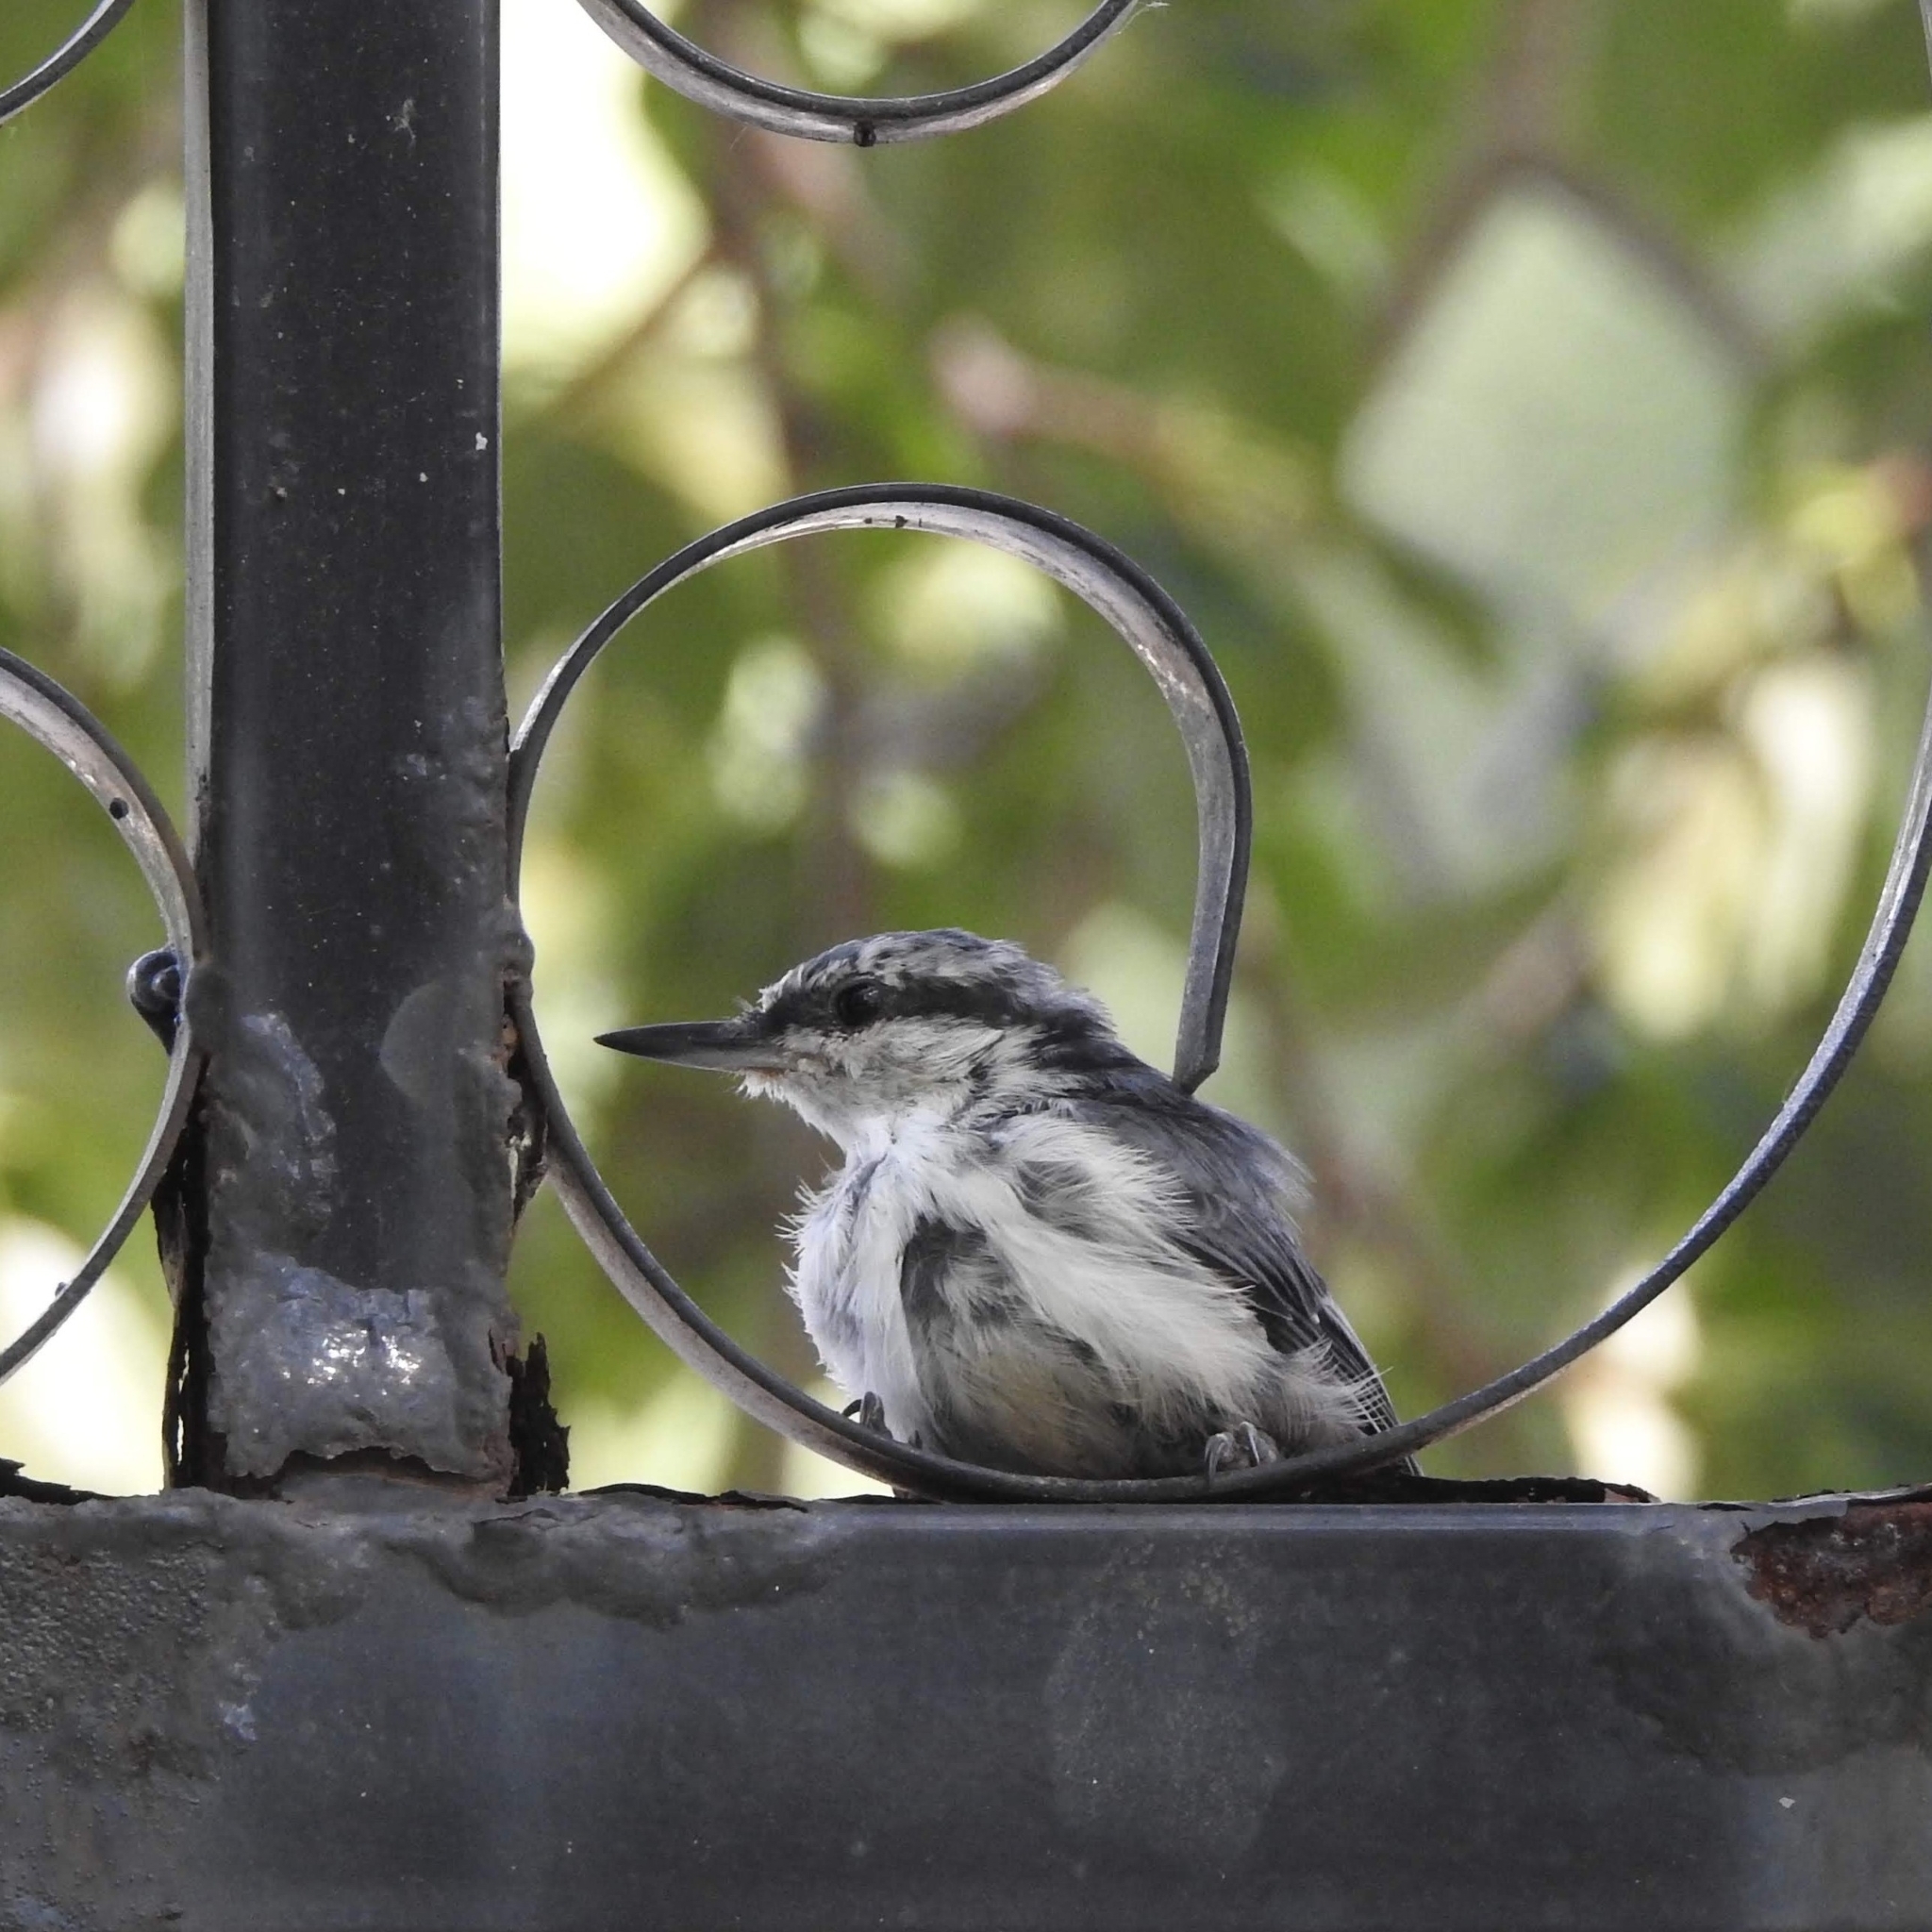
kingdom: Animalia
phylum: Chordata
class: Aves
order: Passeriformes
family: Sittidae
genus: Sitta
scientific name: Sitta europaea
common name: Eurasian nuthatch
